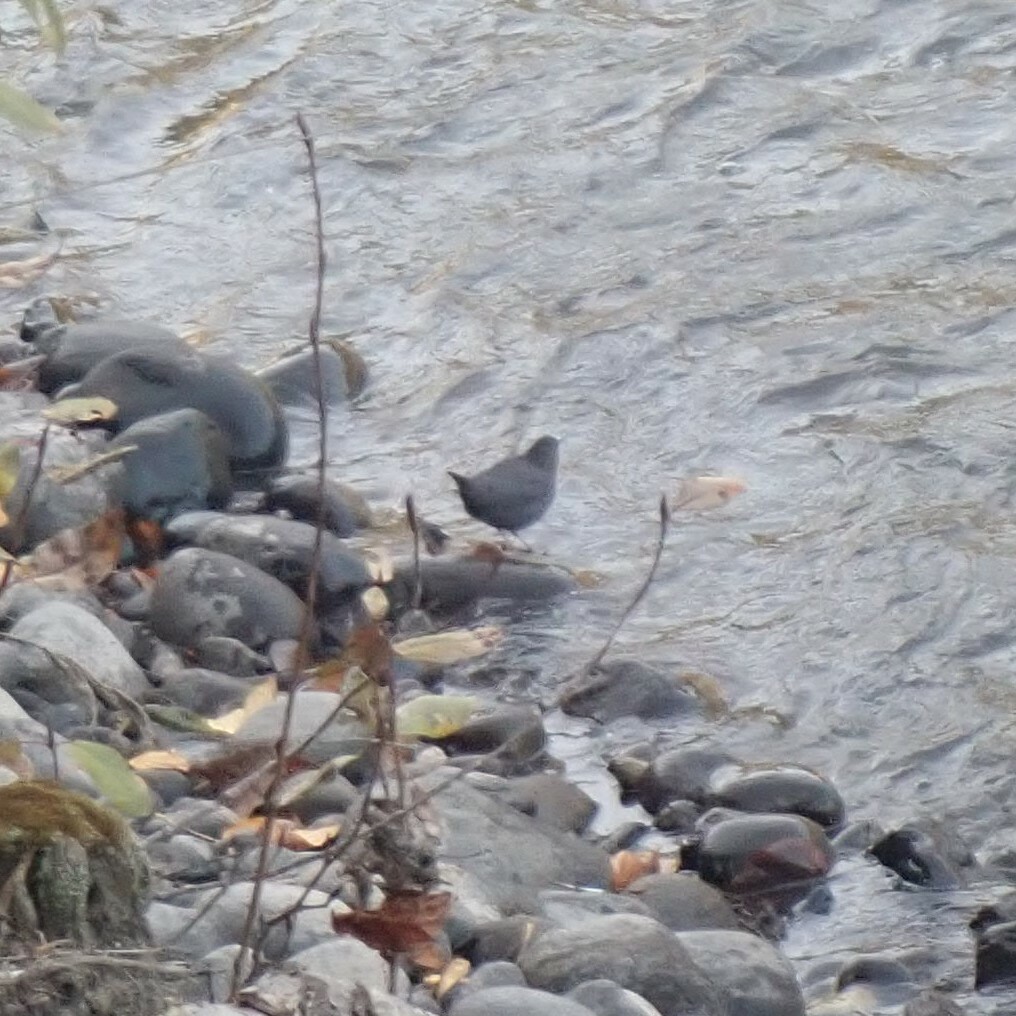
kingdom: Animalia
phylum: Chordata
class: Aves
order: Passeriformes
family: Cinclidae
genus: Cinclus
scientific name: Cinclus mexicanus
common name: American dipper
